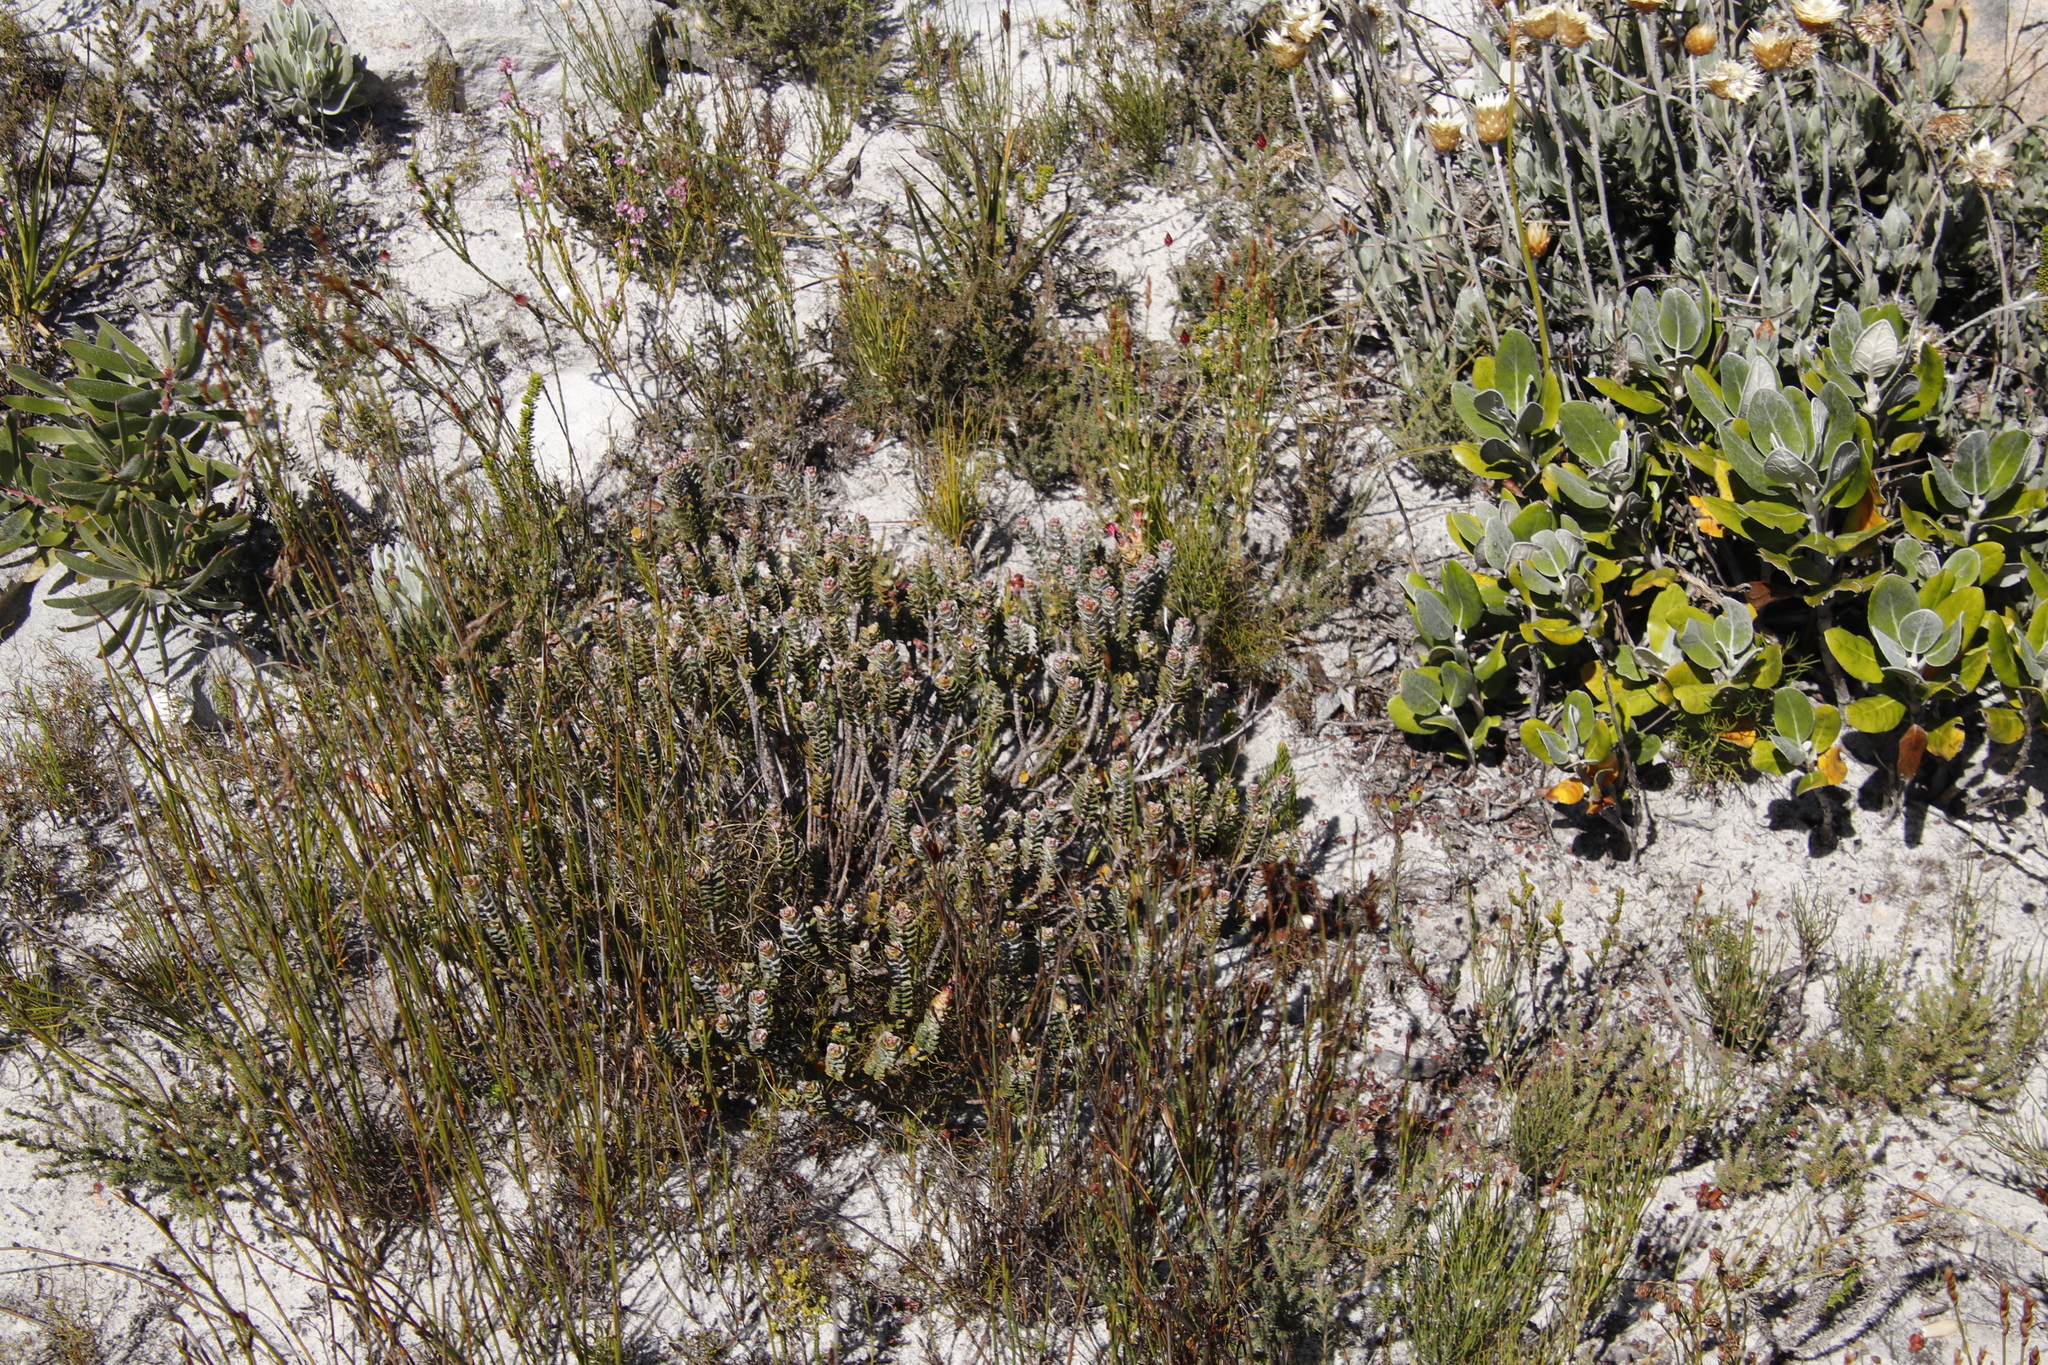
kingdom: Plantae
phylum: Tracheophyta
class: Magnoliopsida
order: Myrtales
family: Penaeaceae
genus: Saltera
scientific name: Saltera sarcocolla
